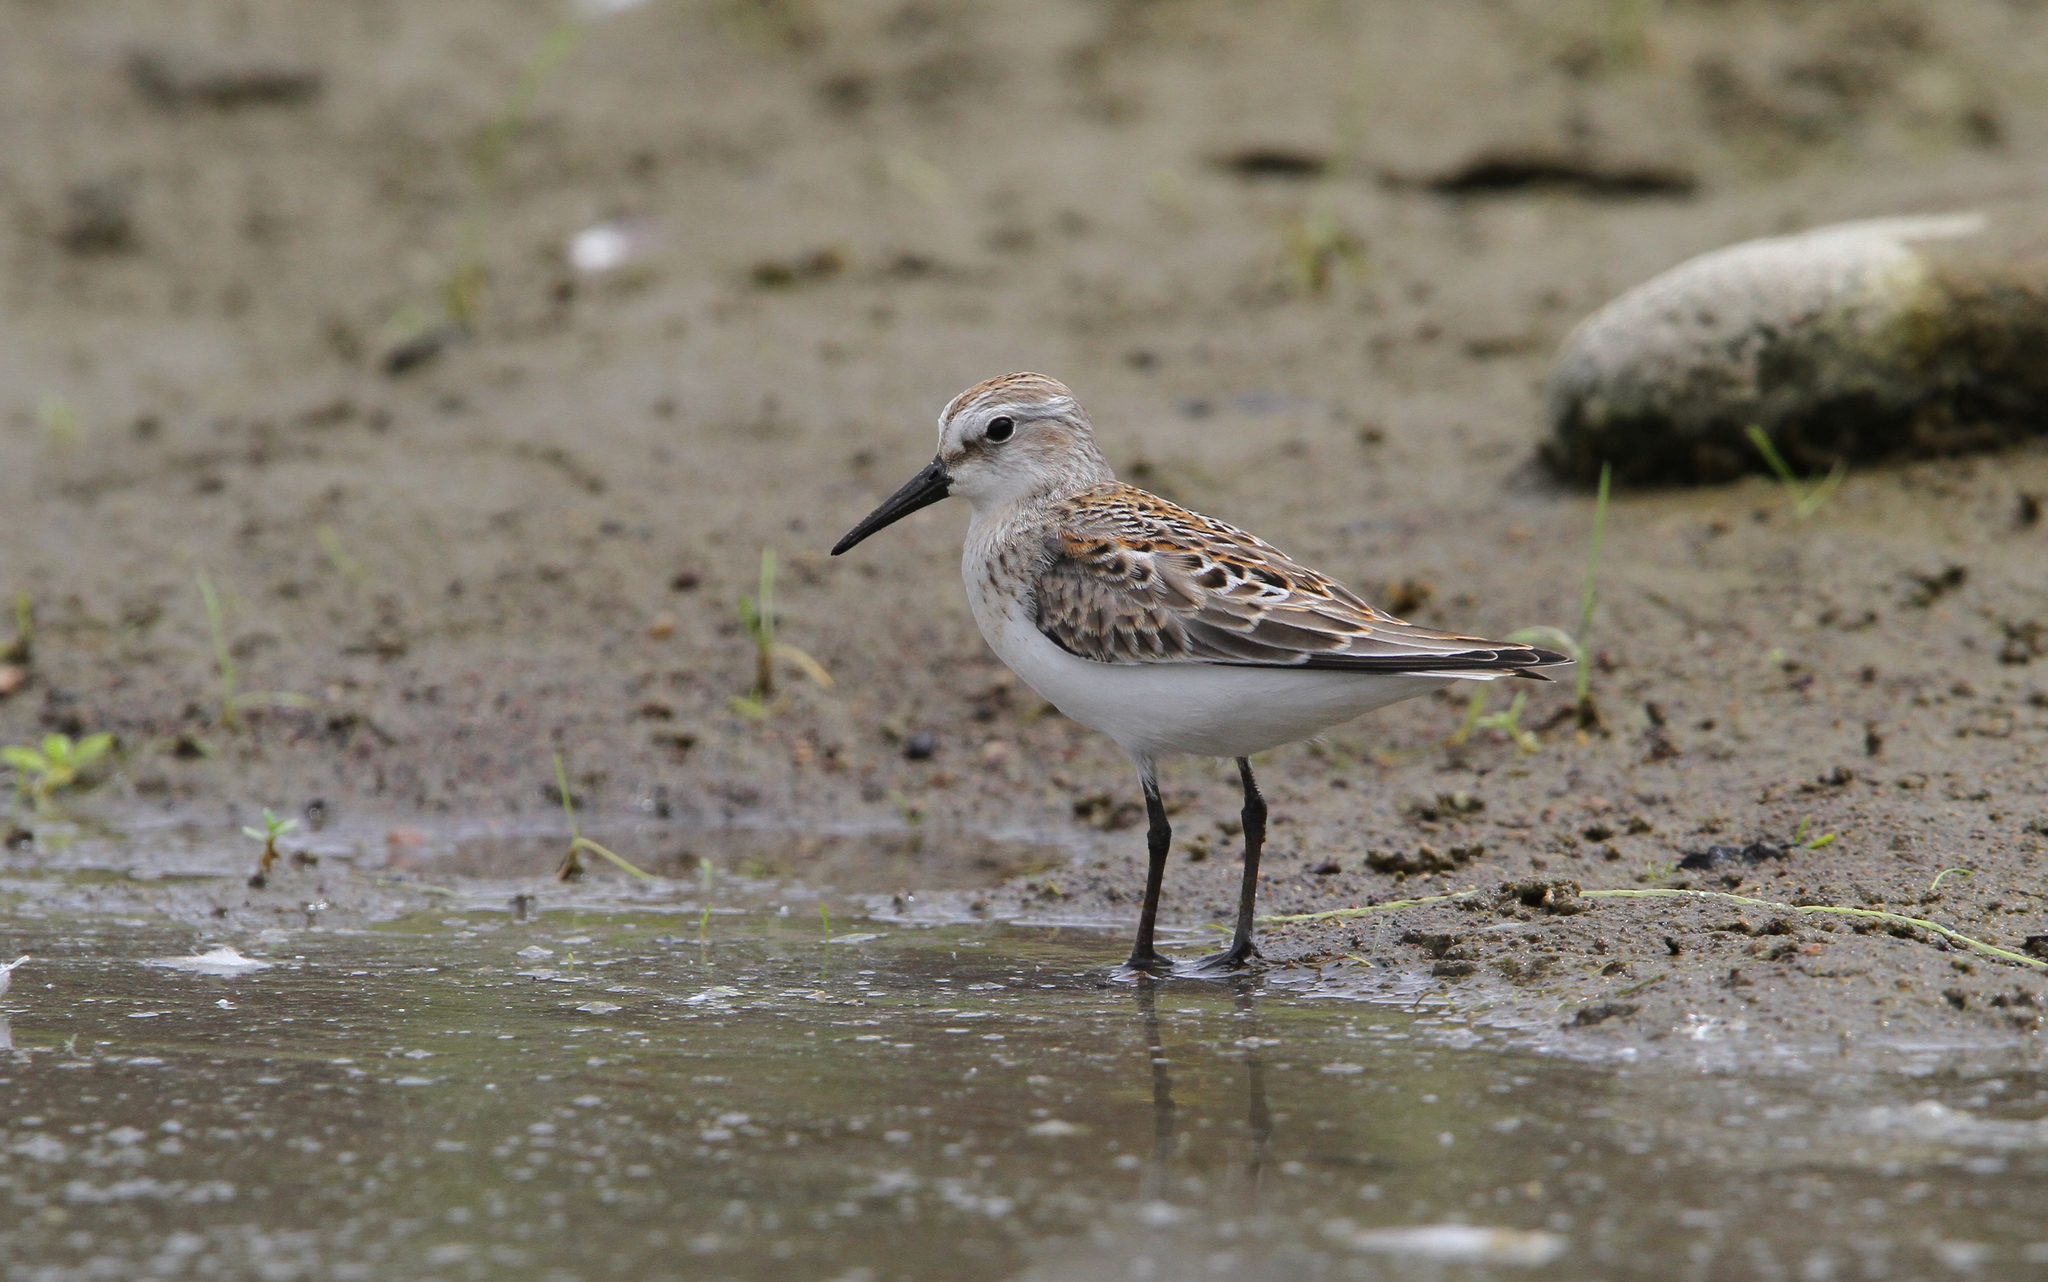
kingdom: Animalia
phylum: Chordata
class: Aves
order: Charadriiformes
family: Scolopacidae
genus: Calidris
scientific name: Calidris mauri
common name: Western sandpiper
